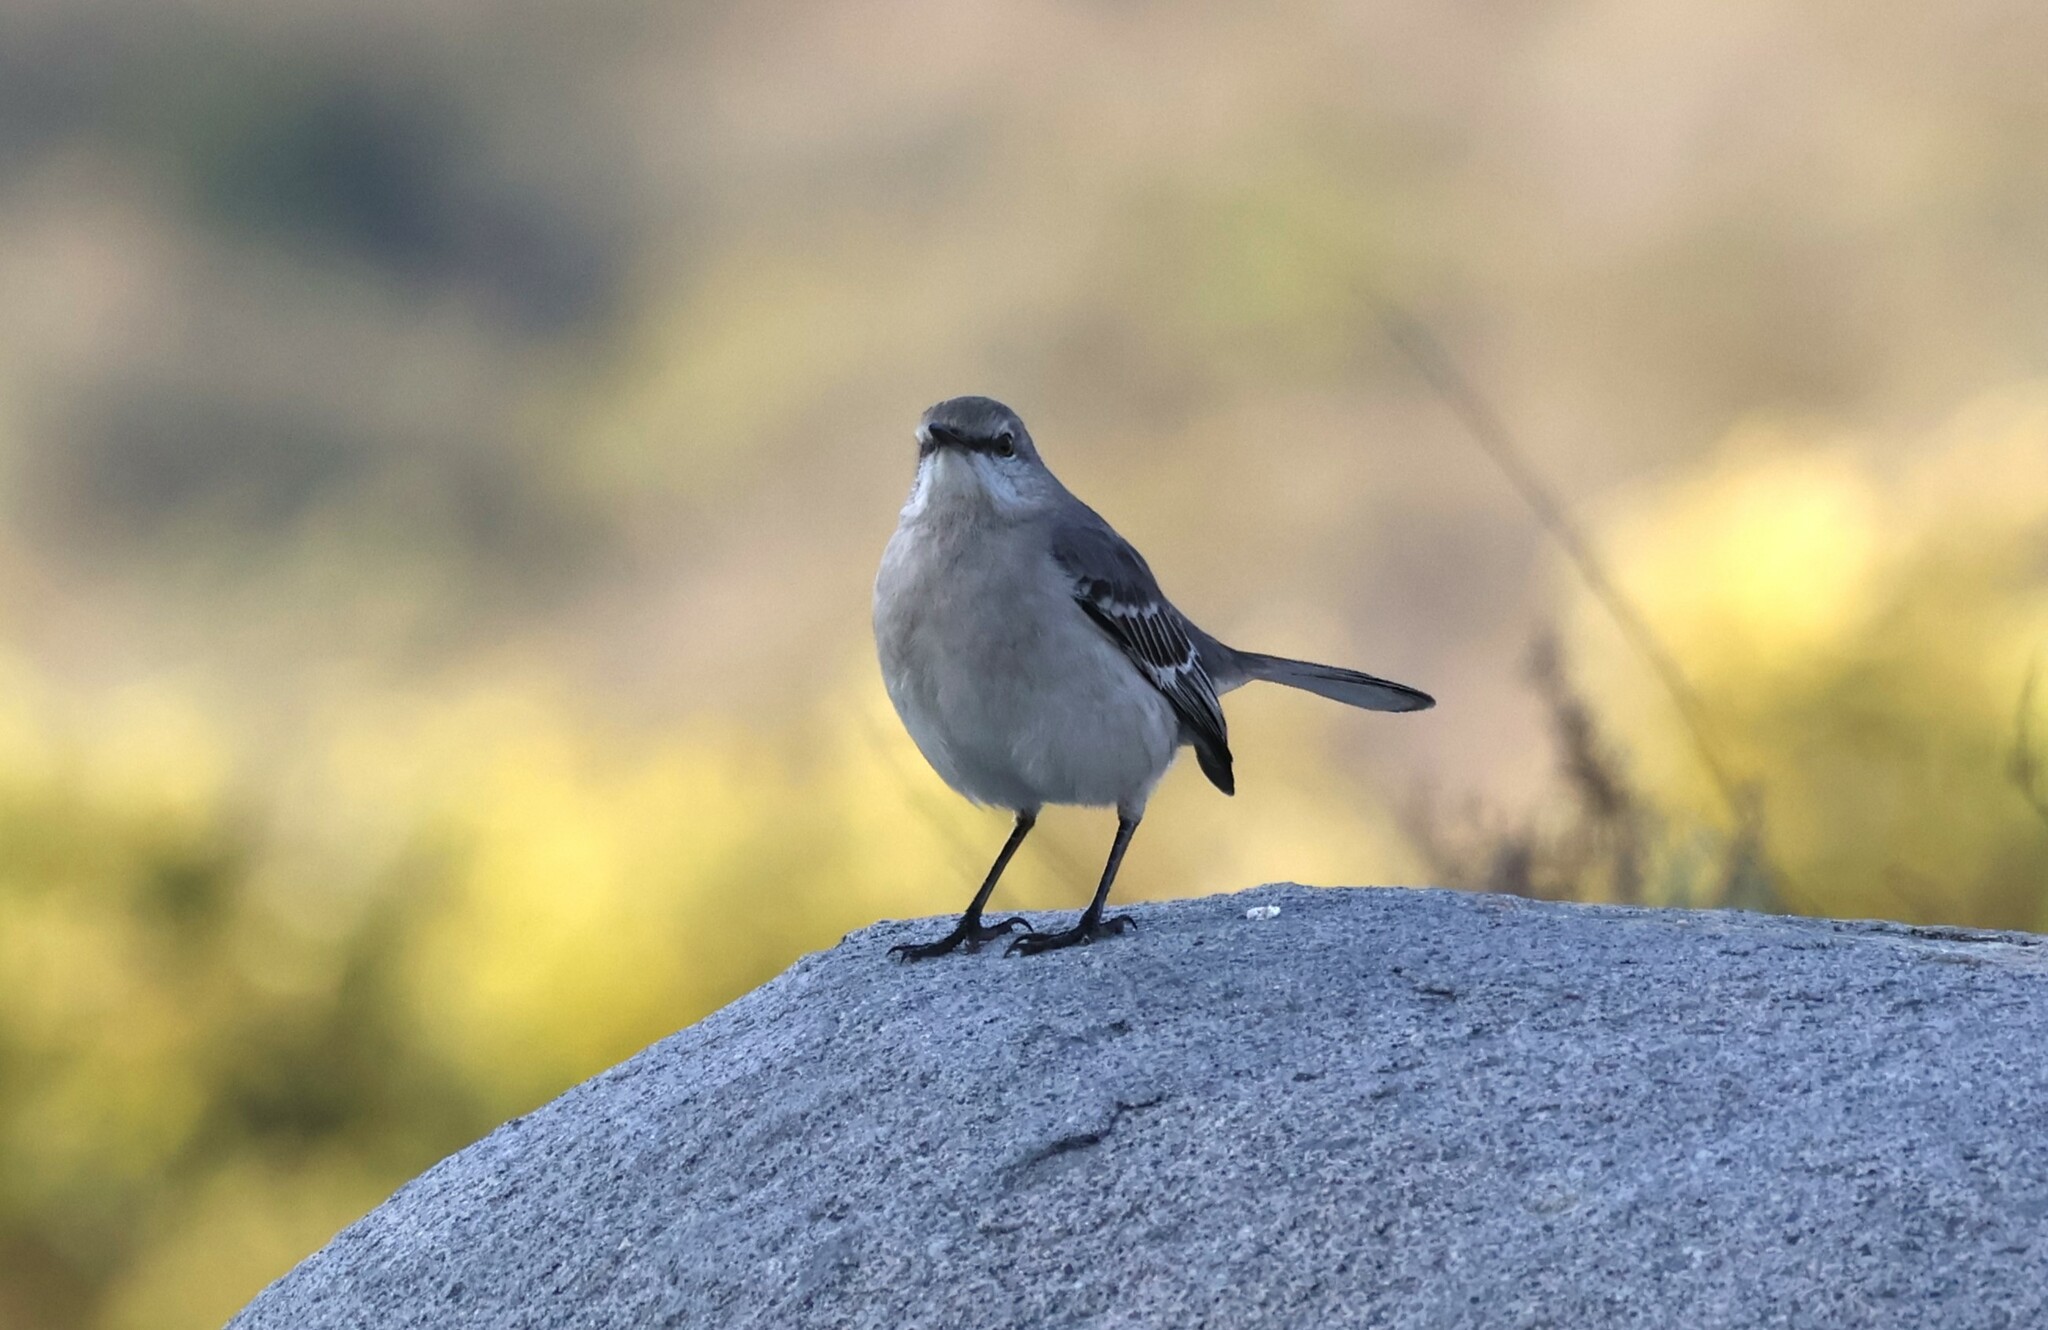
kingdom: Animalia
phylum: Chordata
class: Aves
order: Passeriformes
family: Mimidae
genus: Mimus
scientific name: Mimus polyglottos
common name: Northern mockingbird
